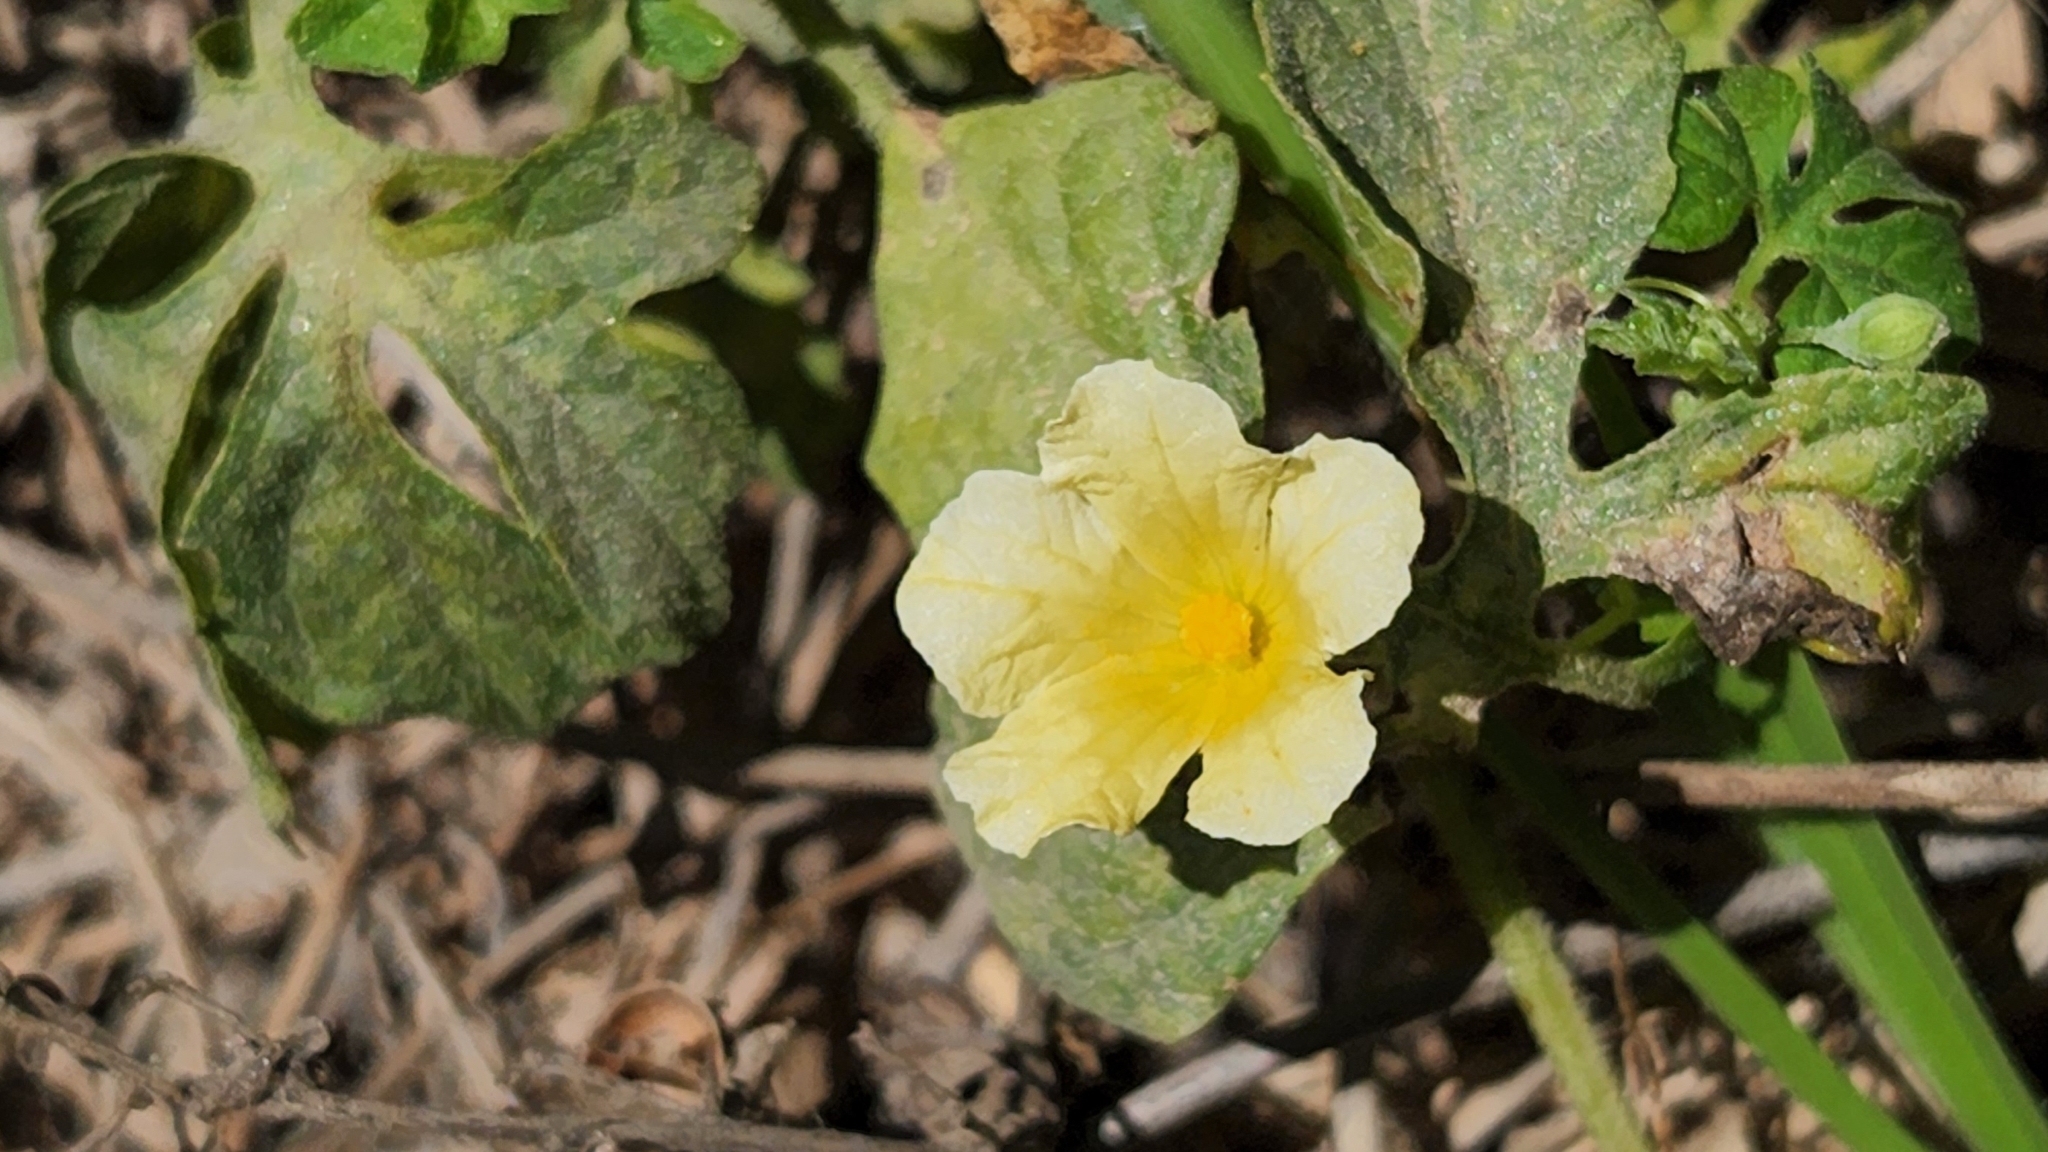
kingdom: Plantae
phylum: Tracheophyta
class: Magnoliopsida
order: Cucurbitales
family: Cucurbitaceae
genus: Momordica
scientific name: Momordica charantia
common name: Balsampear
